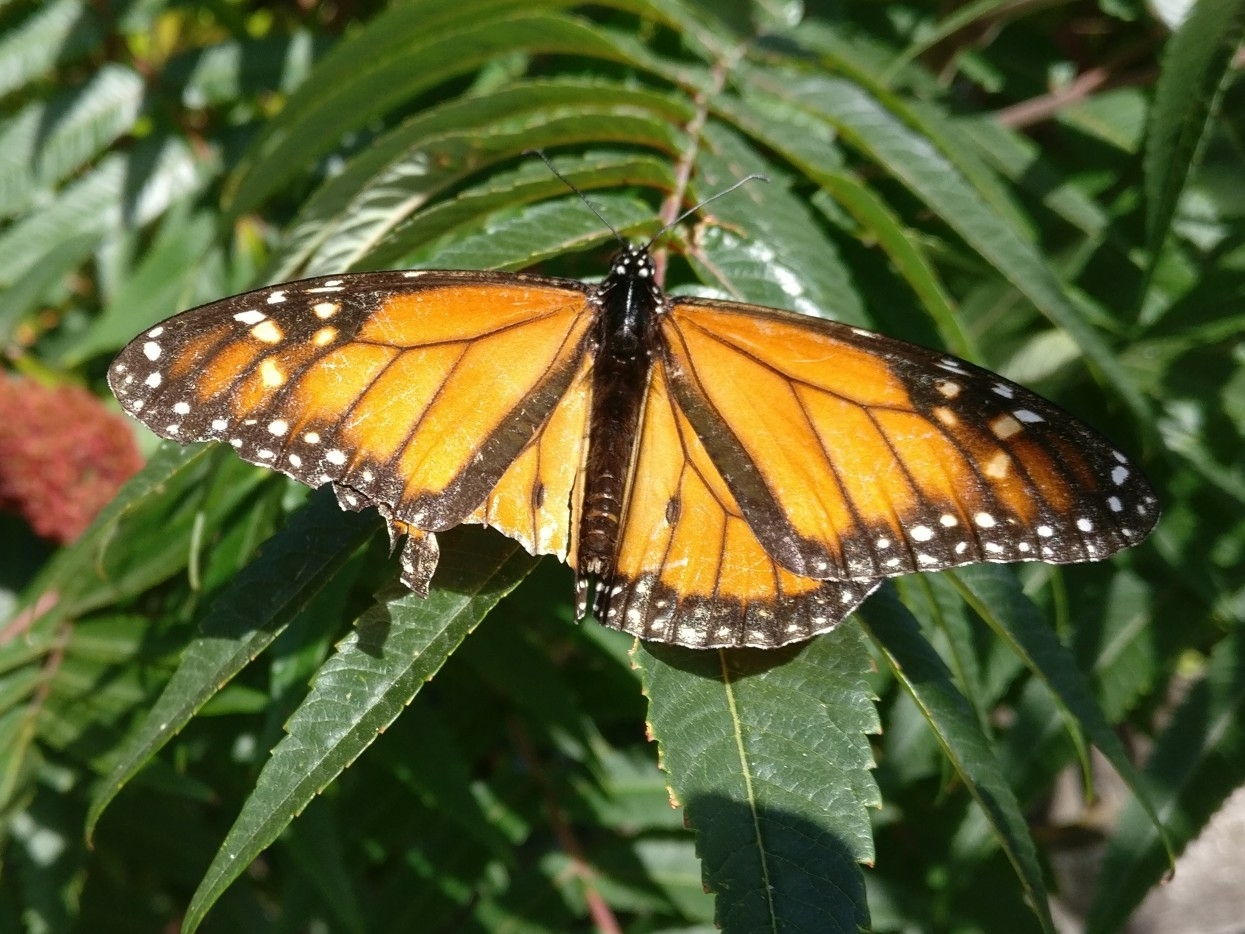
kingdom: Animalia
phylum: Arthropoda
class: Insecta
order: Lepidoptera
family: Nymphalidae
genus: Danaus
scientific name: Danaus plexippus
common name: Monarch
